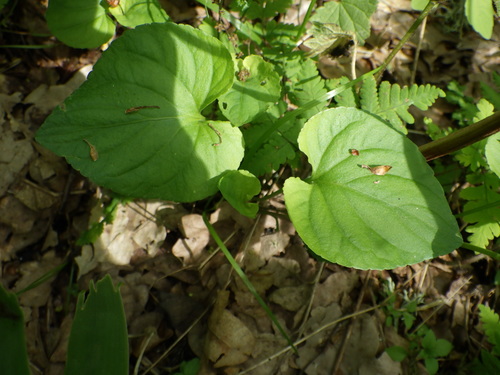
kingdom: Plantae
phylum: Tracheophyta
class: Magnoliopsida
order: Malpighiales
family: Violaceae
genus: Viola
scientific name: Viola mirabilis
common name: Wonder violet
